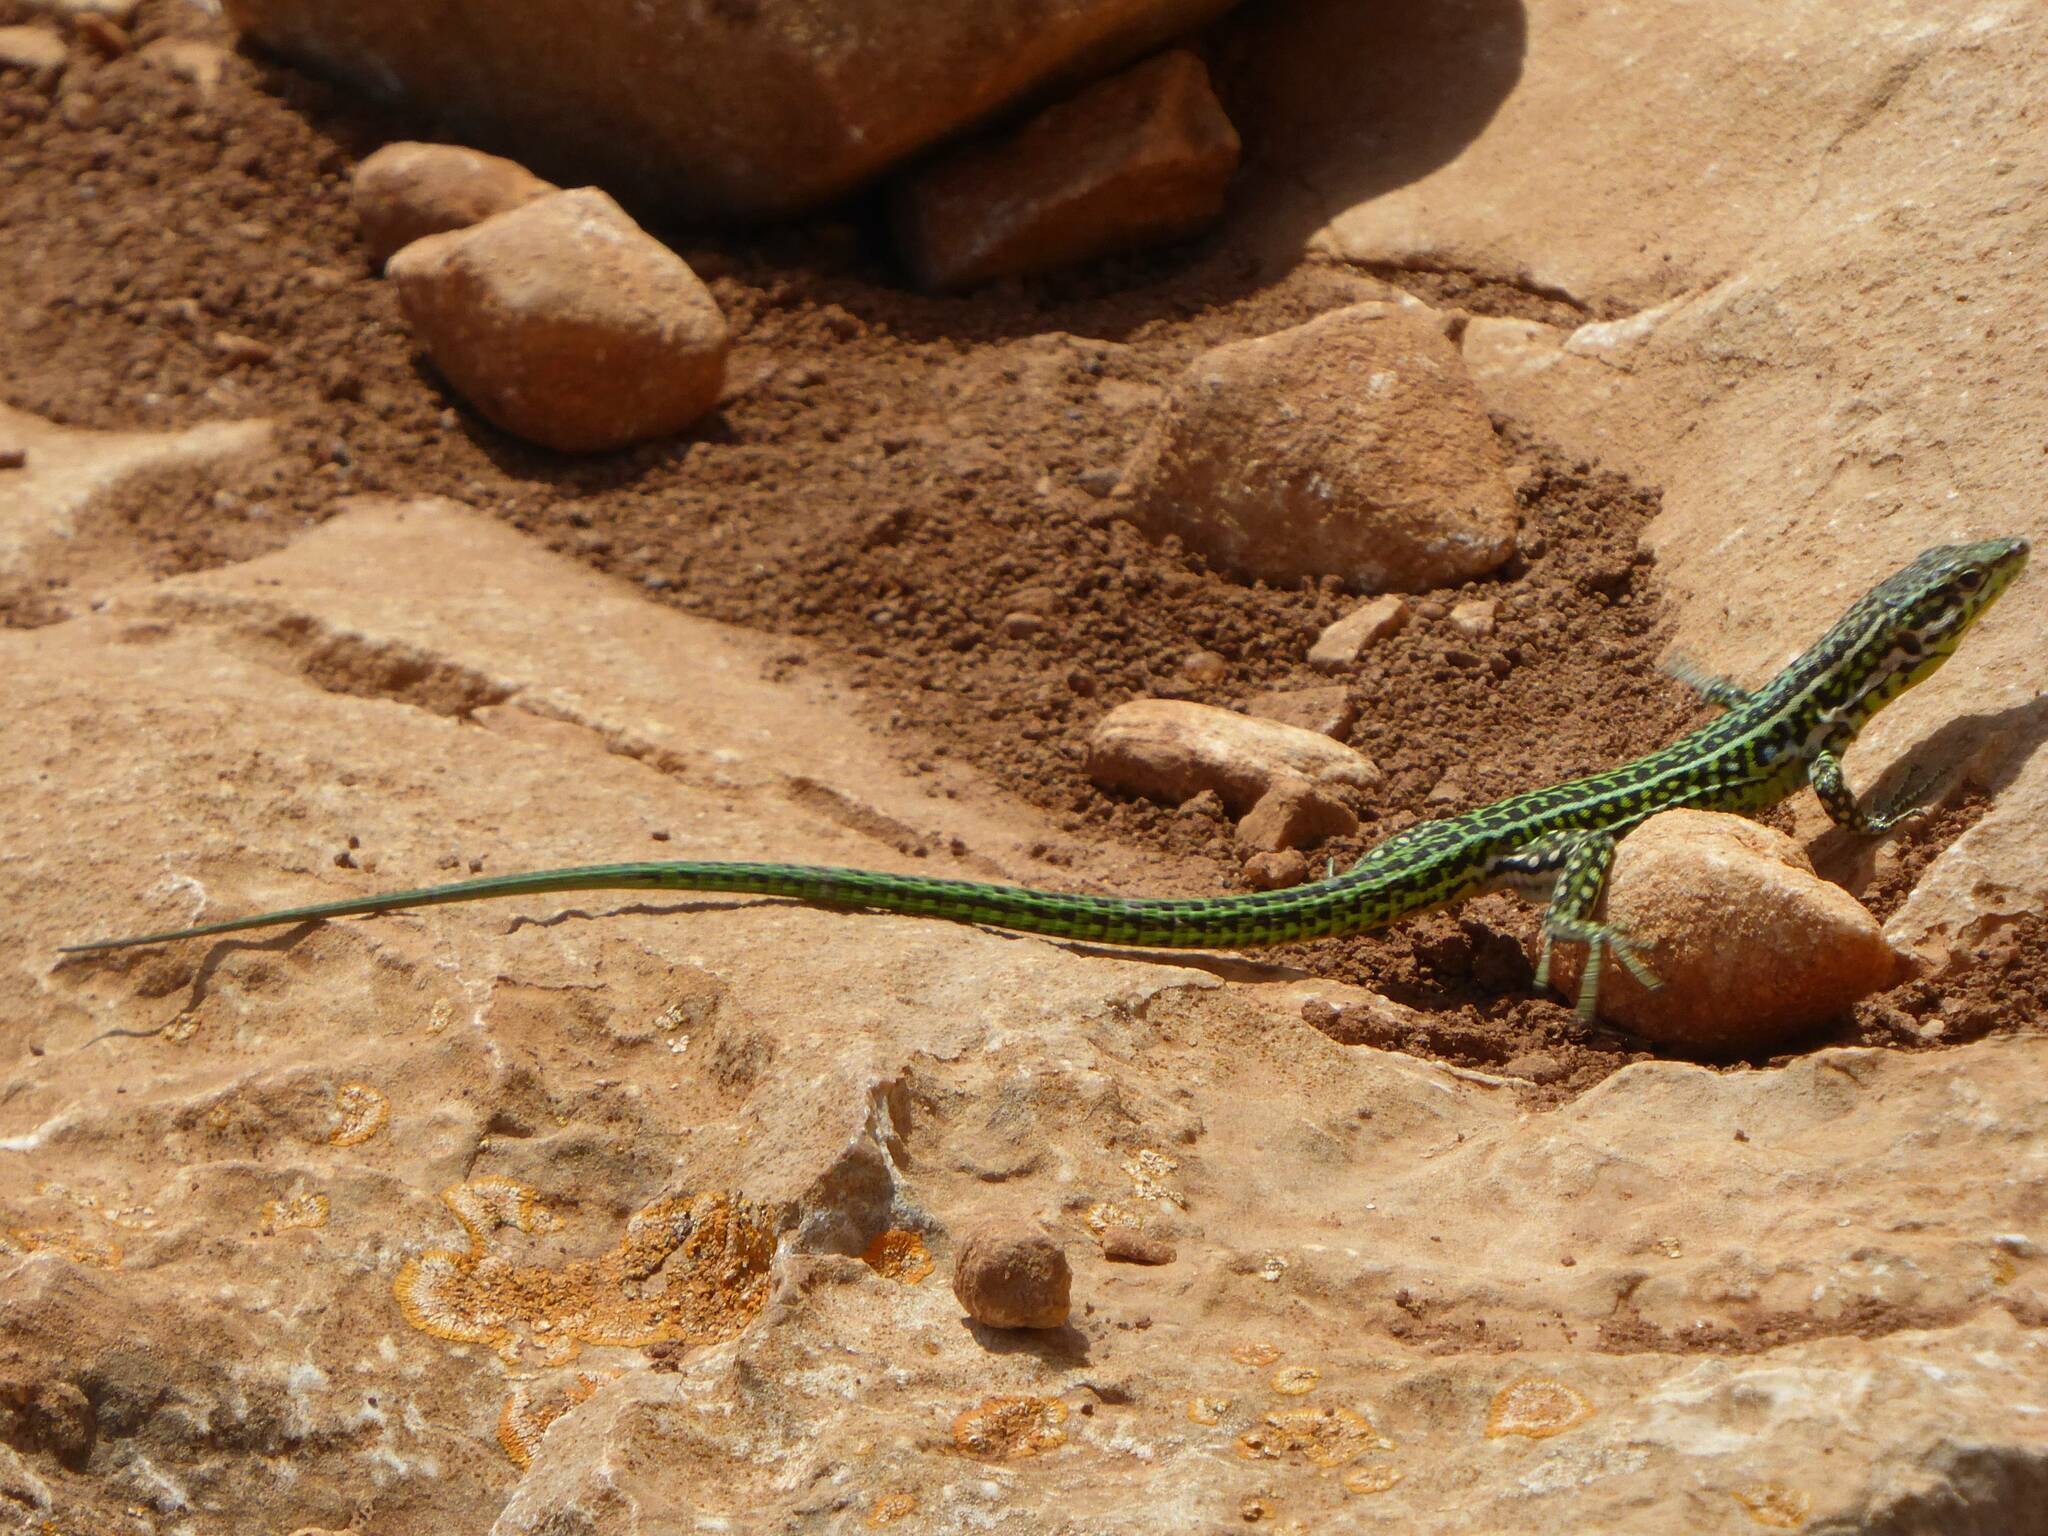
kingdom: Animalia
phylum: Chordata
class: Squamata
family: Lacertidae
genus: Podarcis
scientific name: Podarcis tiliguerta
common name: Tyrrhenian wall lizard
